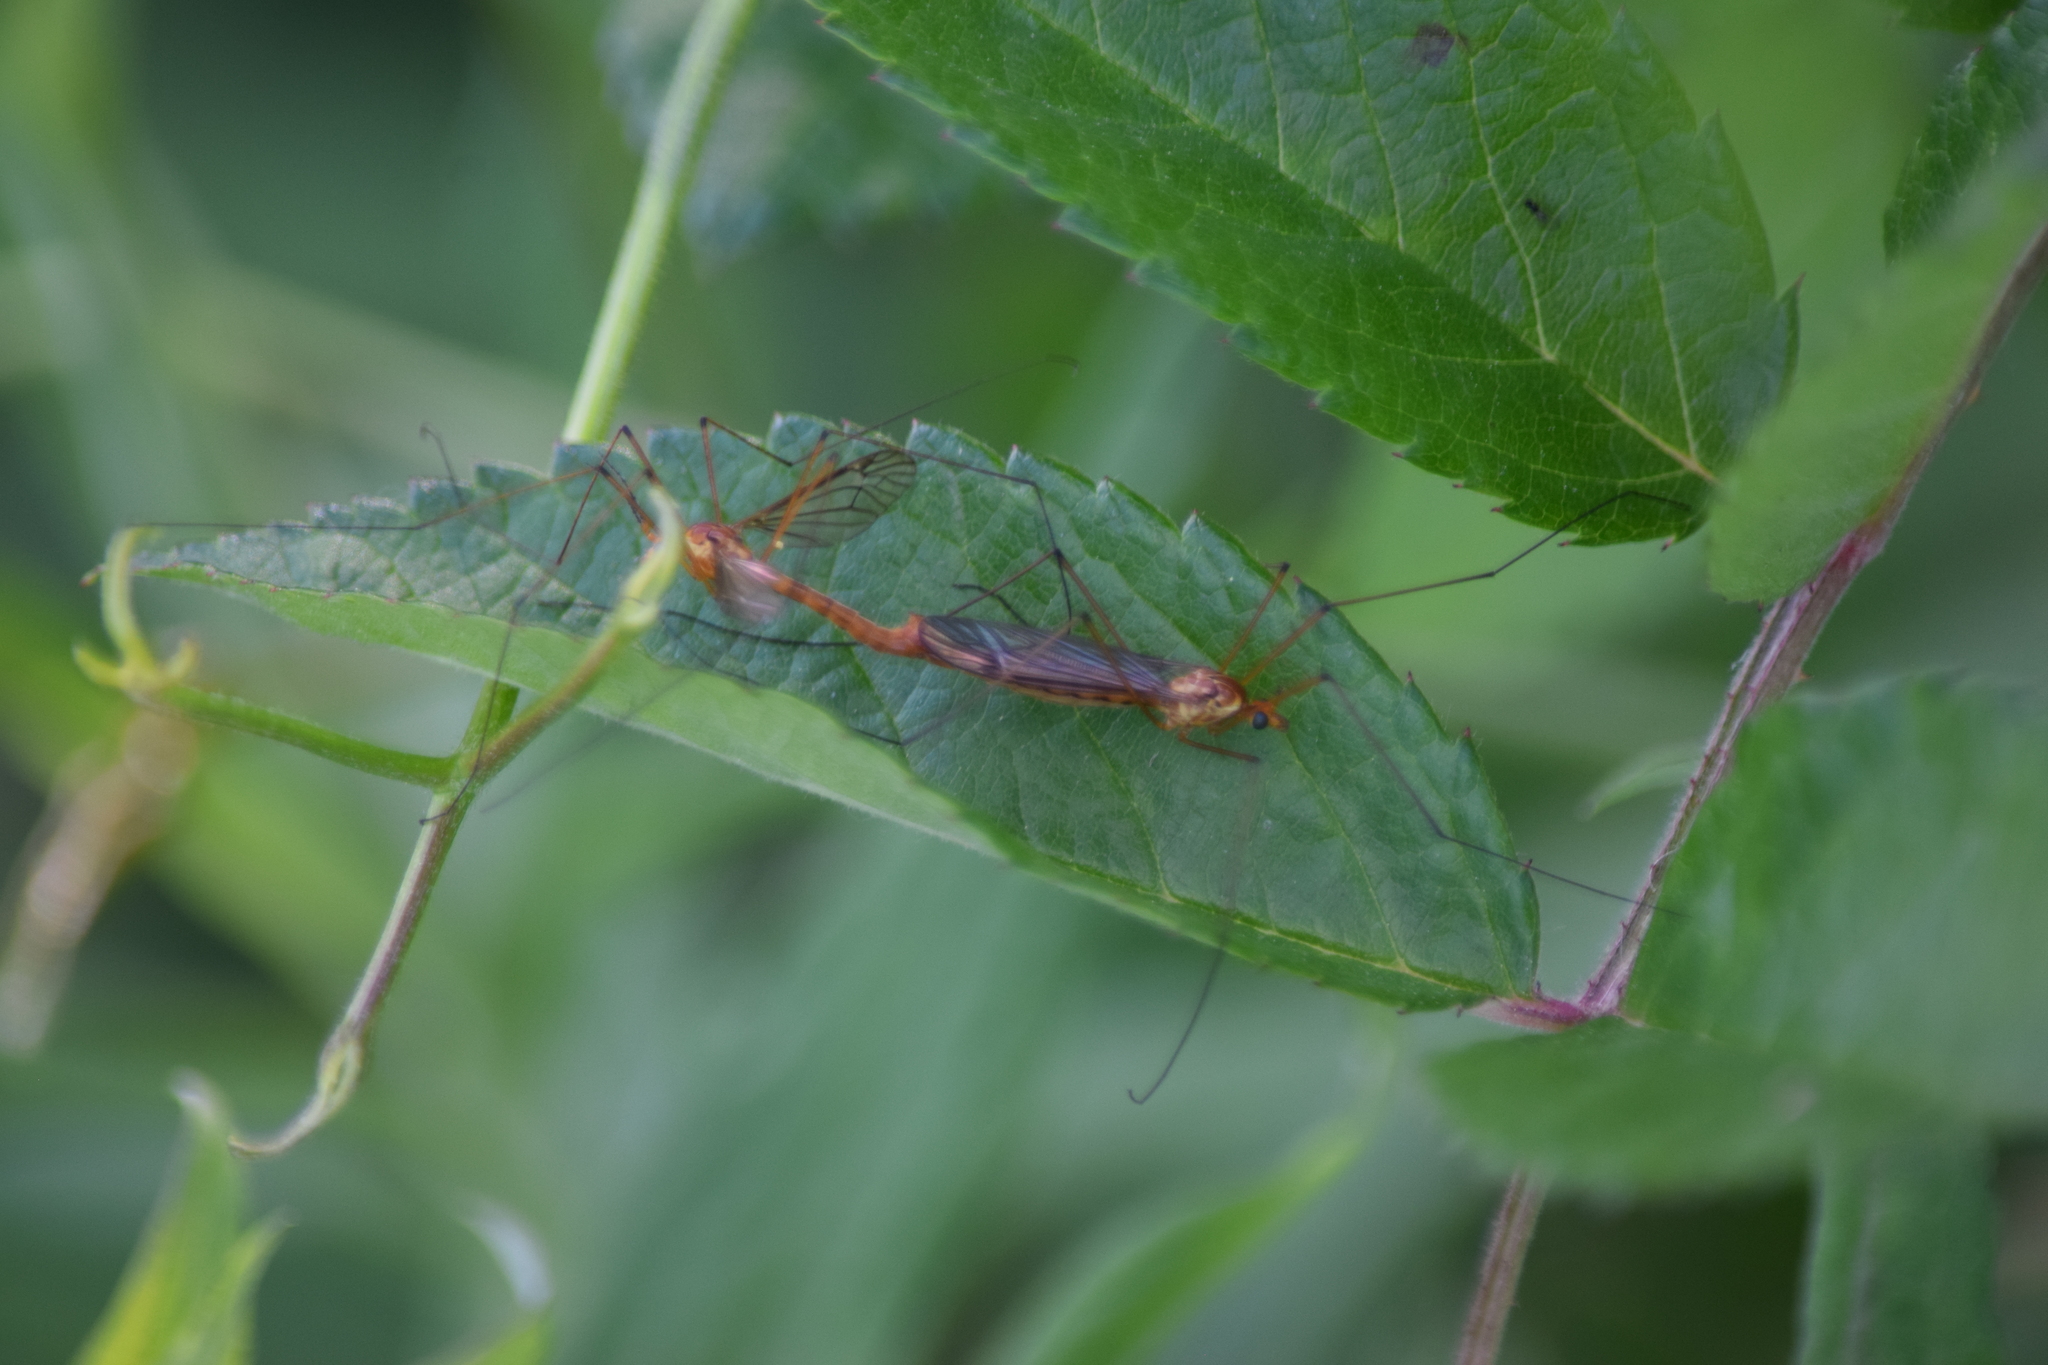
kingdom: Animalia
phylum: Arthropoda
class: Insecta
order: Diptera
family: Tipulidae
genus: Nephrotoma
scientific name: Nephrotoma ferruginea
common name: Ferruginous tiger crane fly
